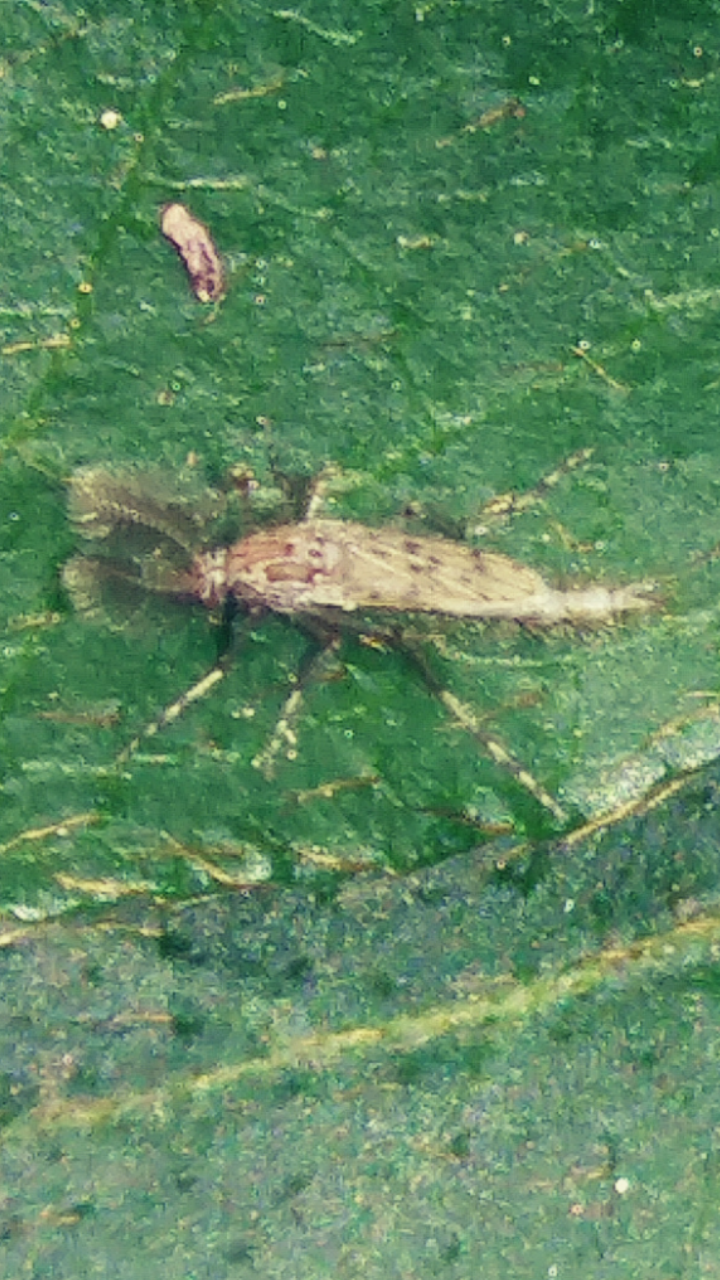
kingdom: Animalia
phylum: Arthropoda
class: Insecta
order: Diptera
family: Chaoboridae
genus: Chaoborus
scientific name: Chaoborus punctipennis
